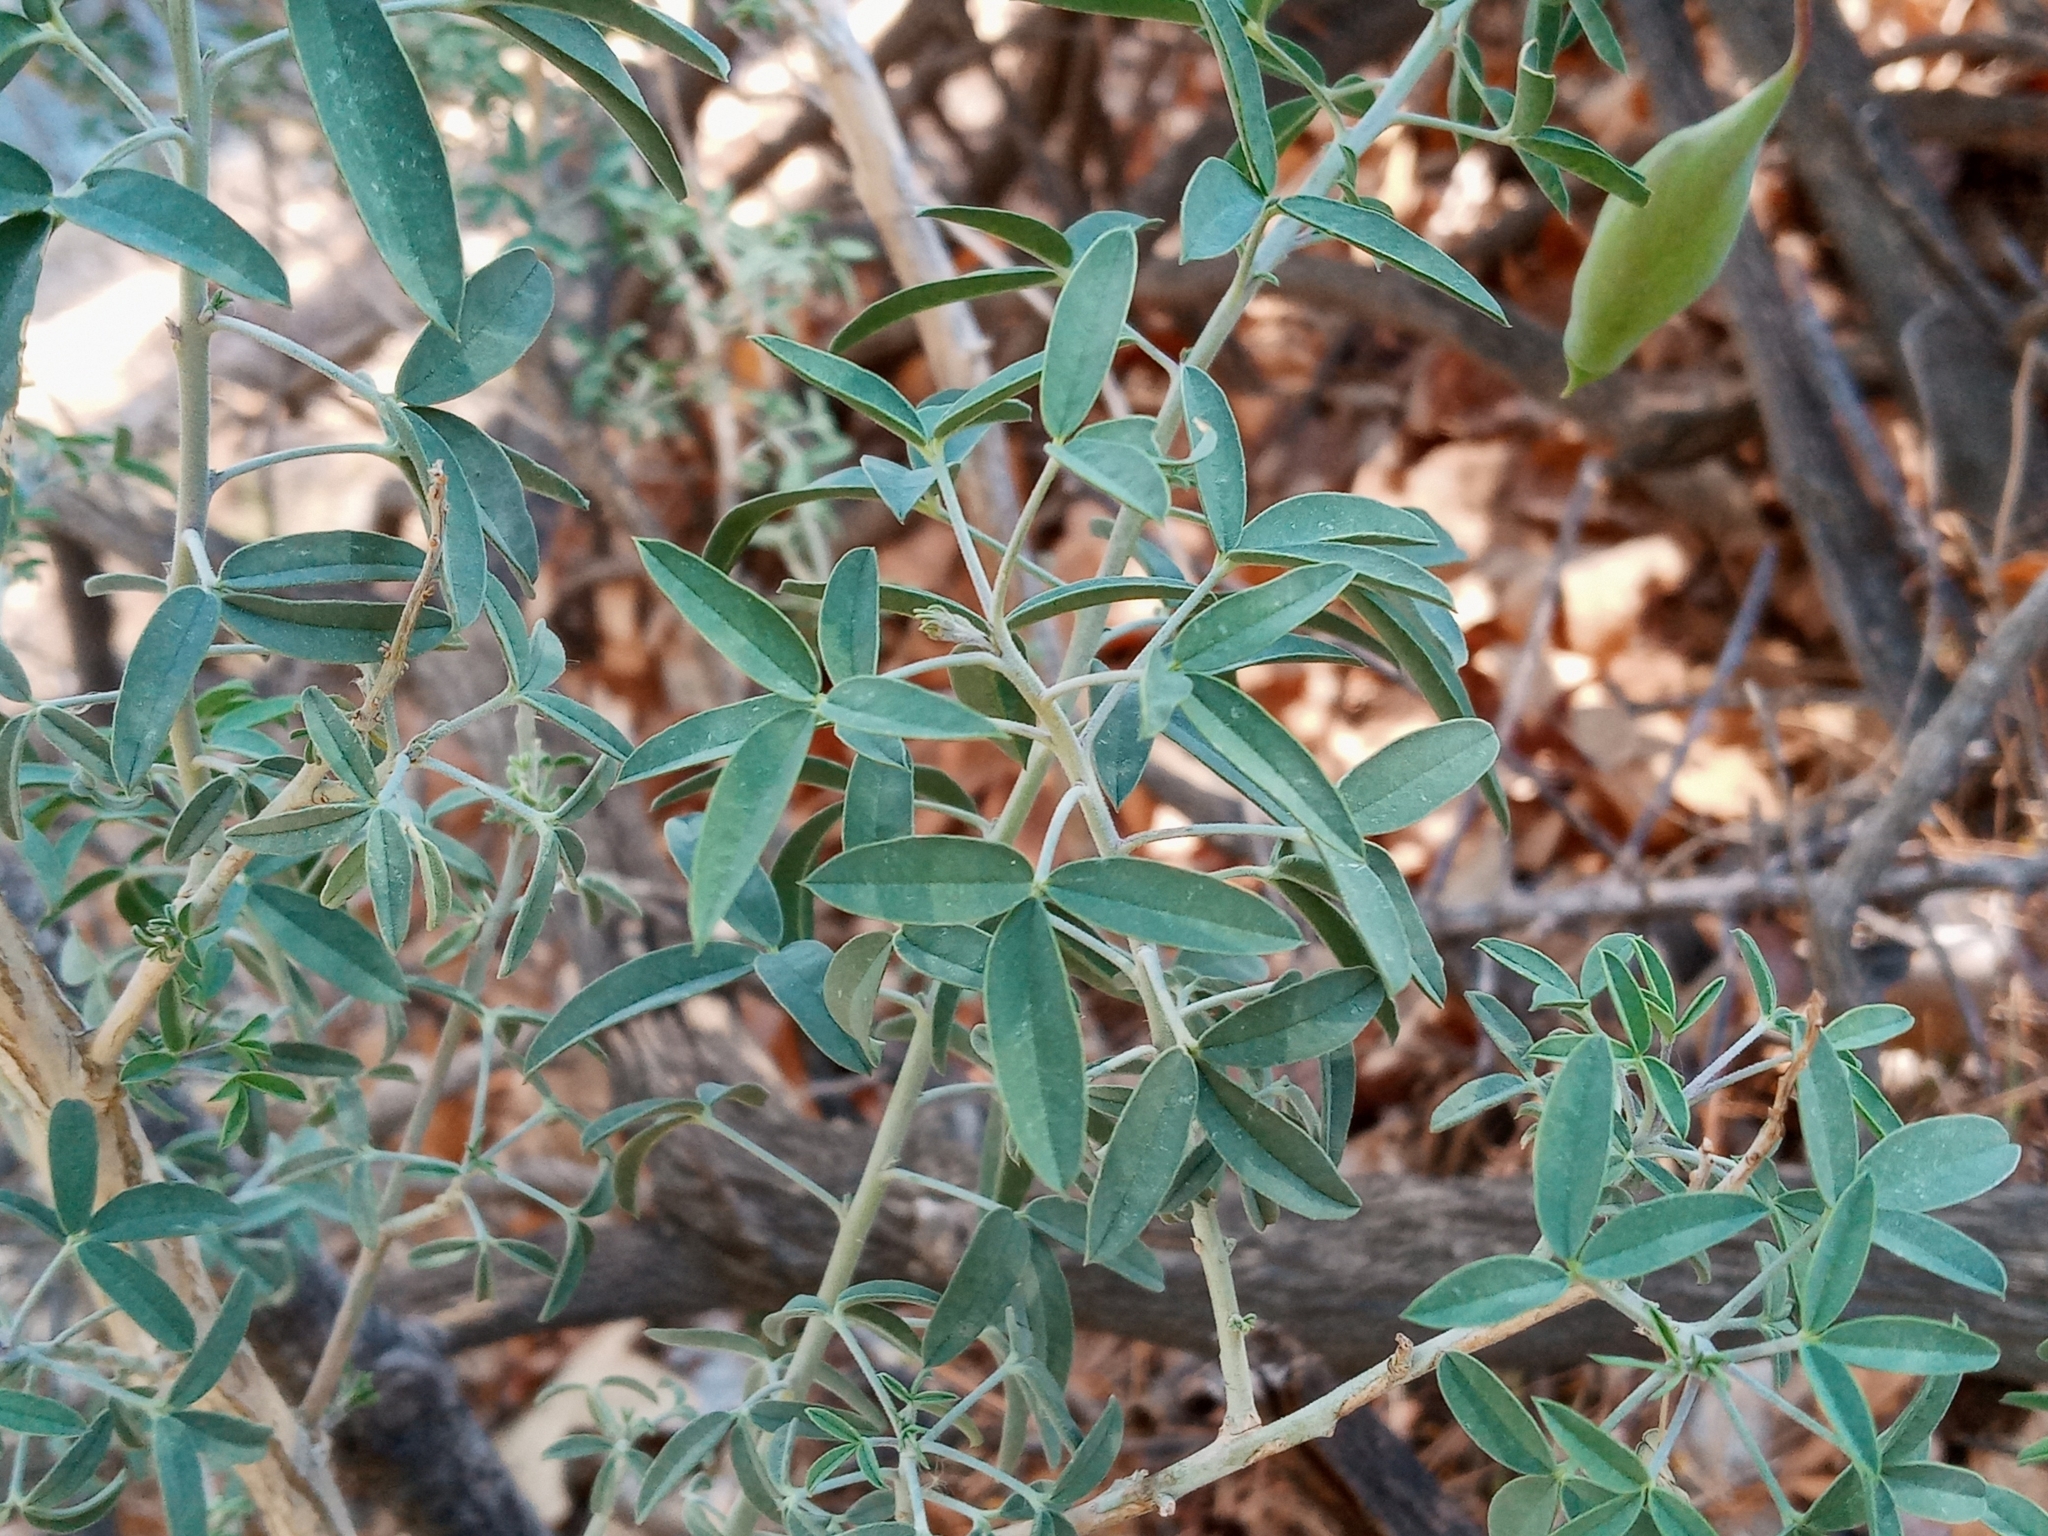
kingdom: Plantae
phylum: Tracheophyta
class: Magnoliopsida
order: Brassicales
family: Cleomaceae
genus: Cleomella
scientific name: Cleomella arborea
